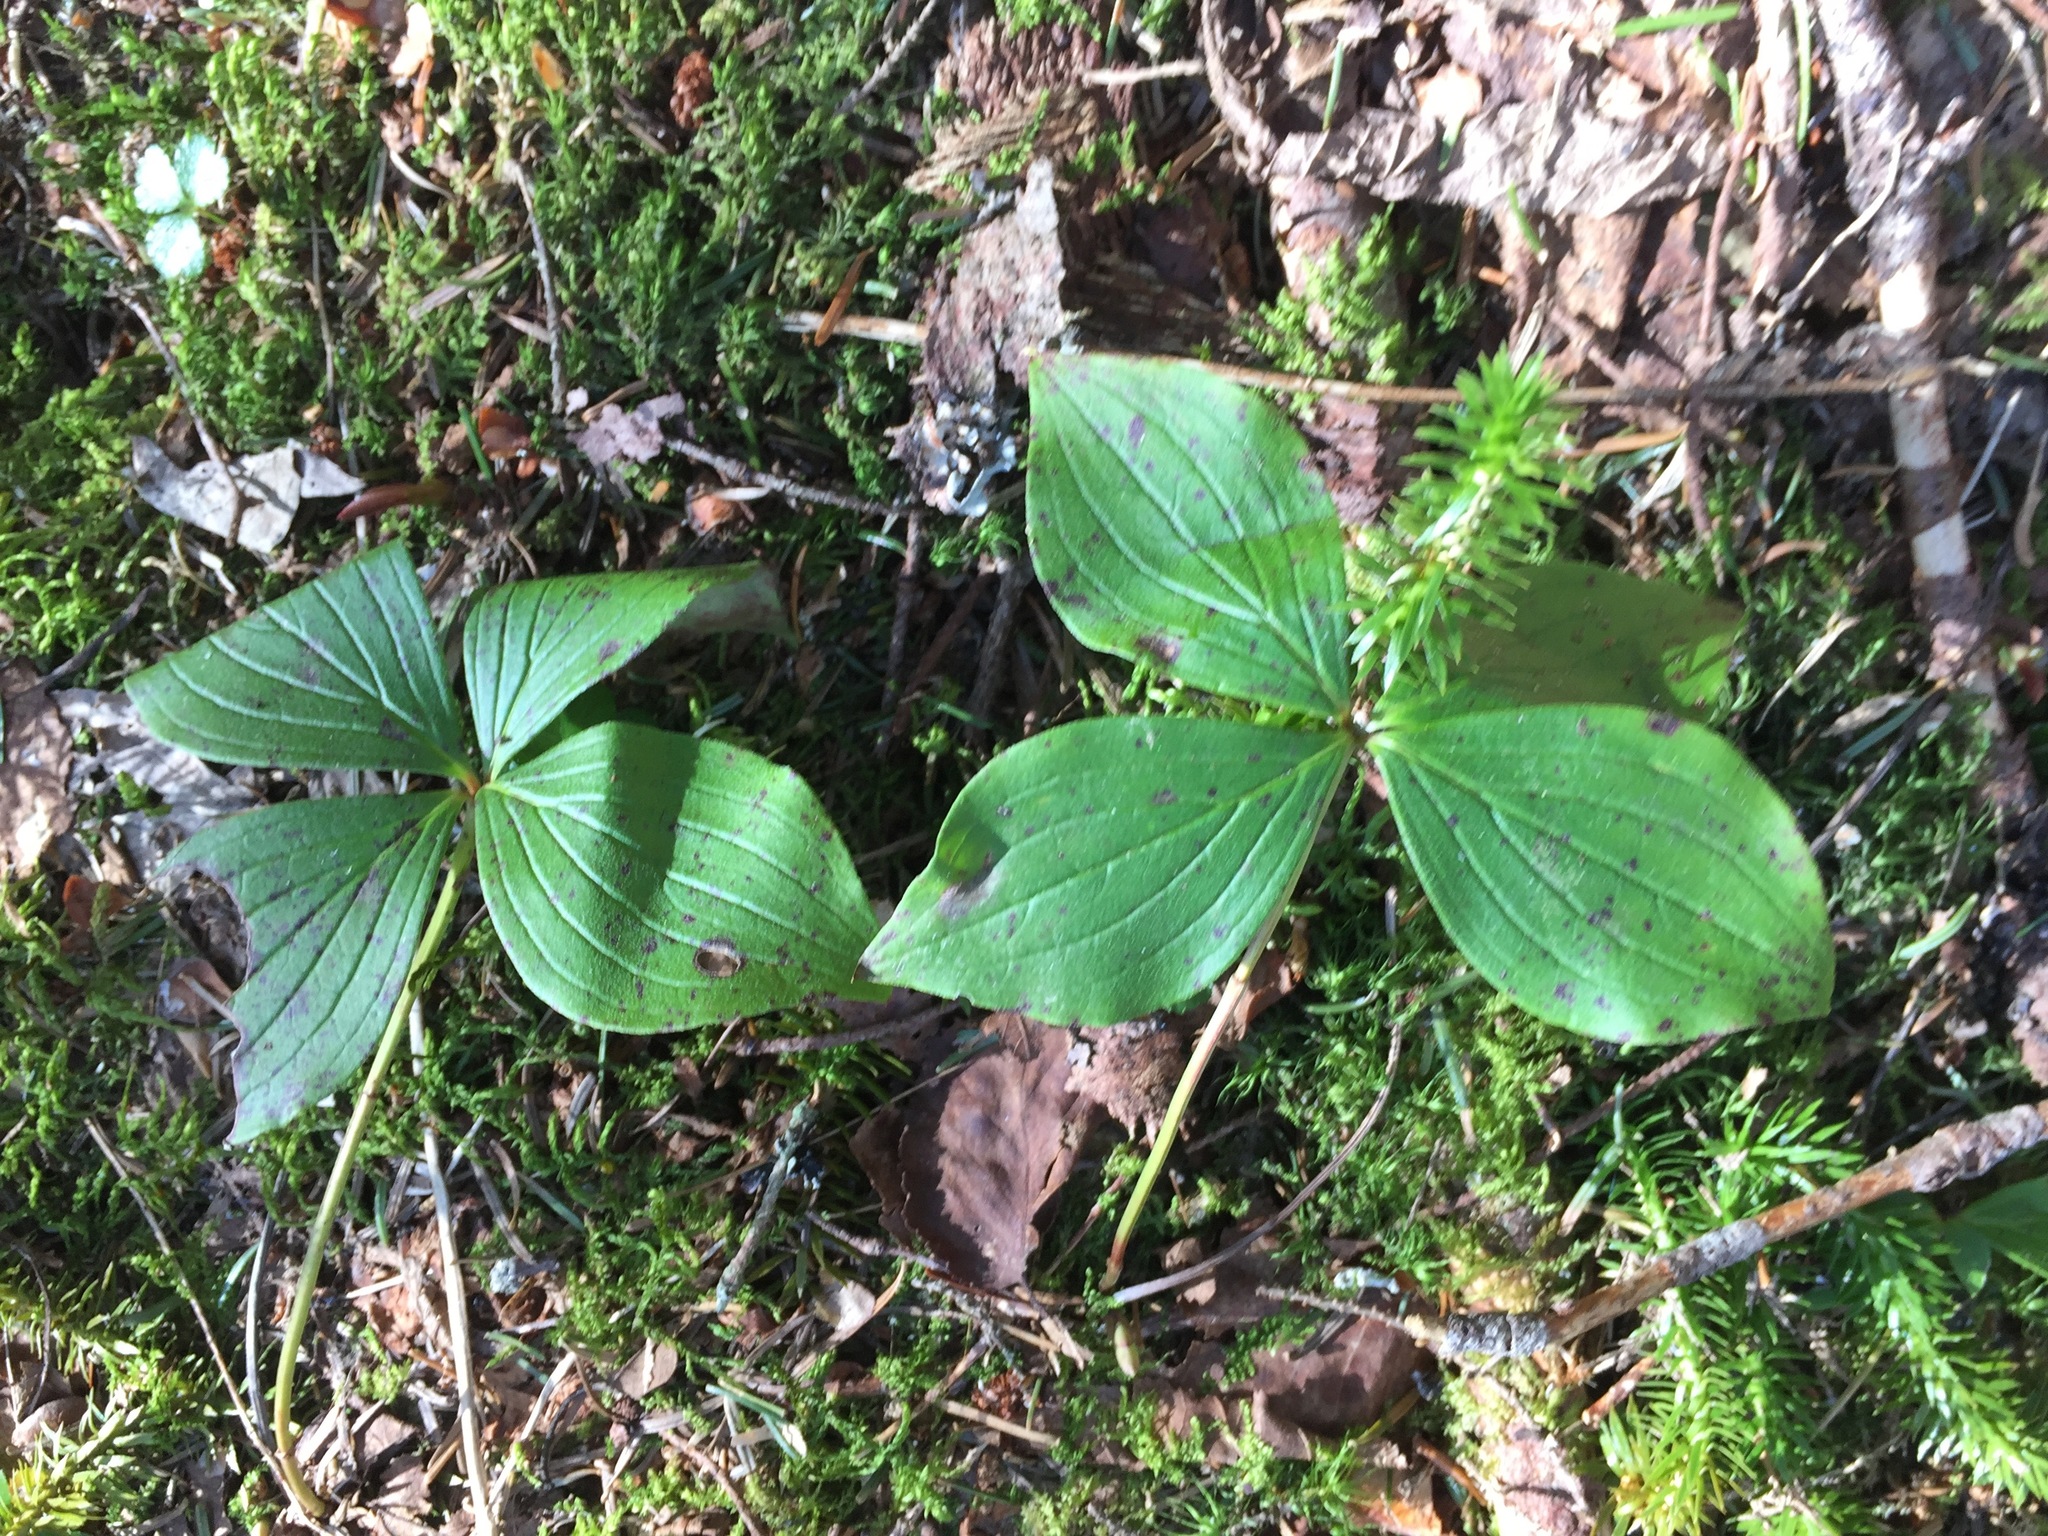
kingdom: Plantae
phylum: Tracheophyta
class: Magnoliopsida
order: Cornales
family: Cornaceae
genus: Cornus
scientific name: Cornus canadensis
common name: Creeping dogwood
